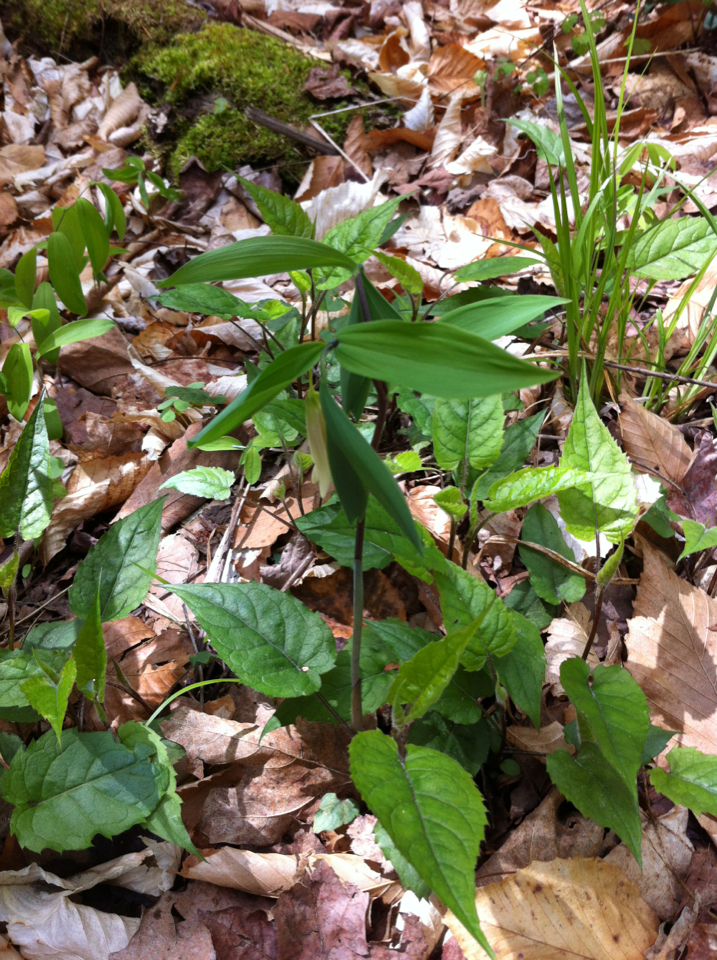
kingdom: Plantae
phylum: Tracheophyta
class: Liliopsida
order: Liliales
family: Colchicaceae
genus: Uvularia
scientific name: Uvularia sessilifolia
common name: Straw-lily
